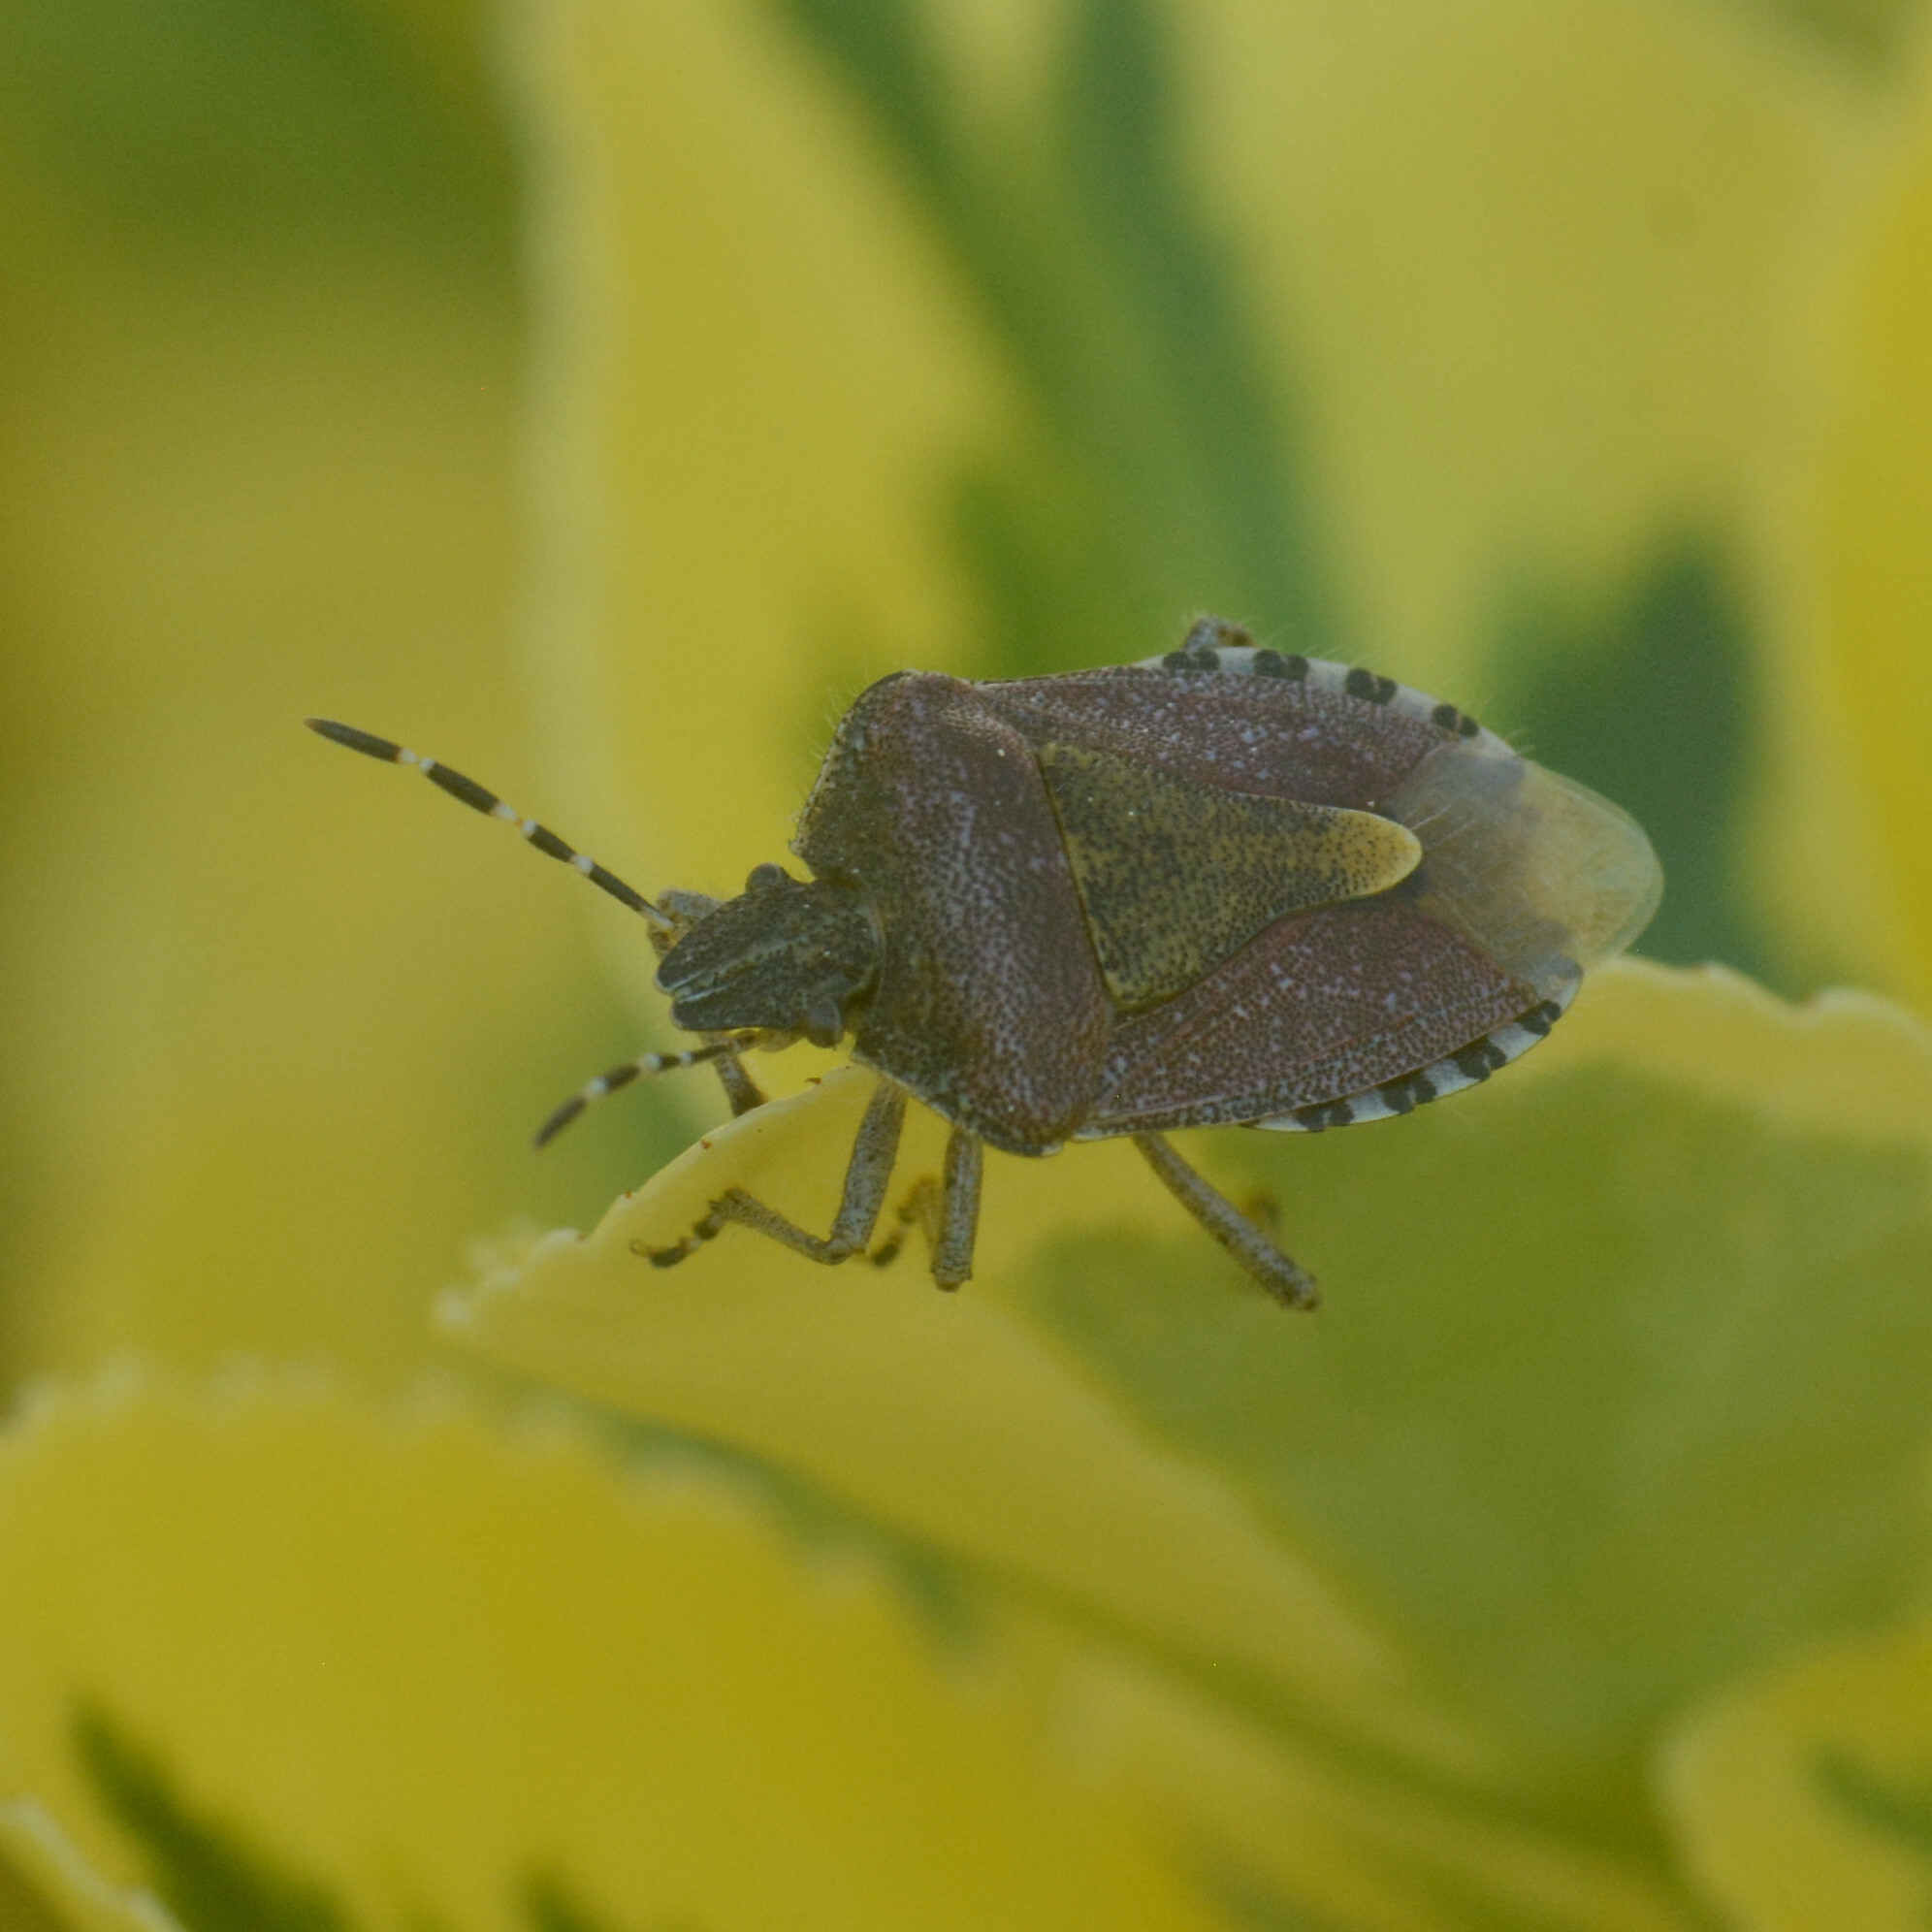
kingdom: Animalia
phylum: Arthropoda
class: Insecta
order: Hemiptera
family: Pentatomidae
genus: Dolycoris
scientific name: Dolycoris baccarum
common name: Sloe bug
